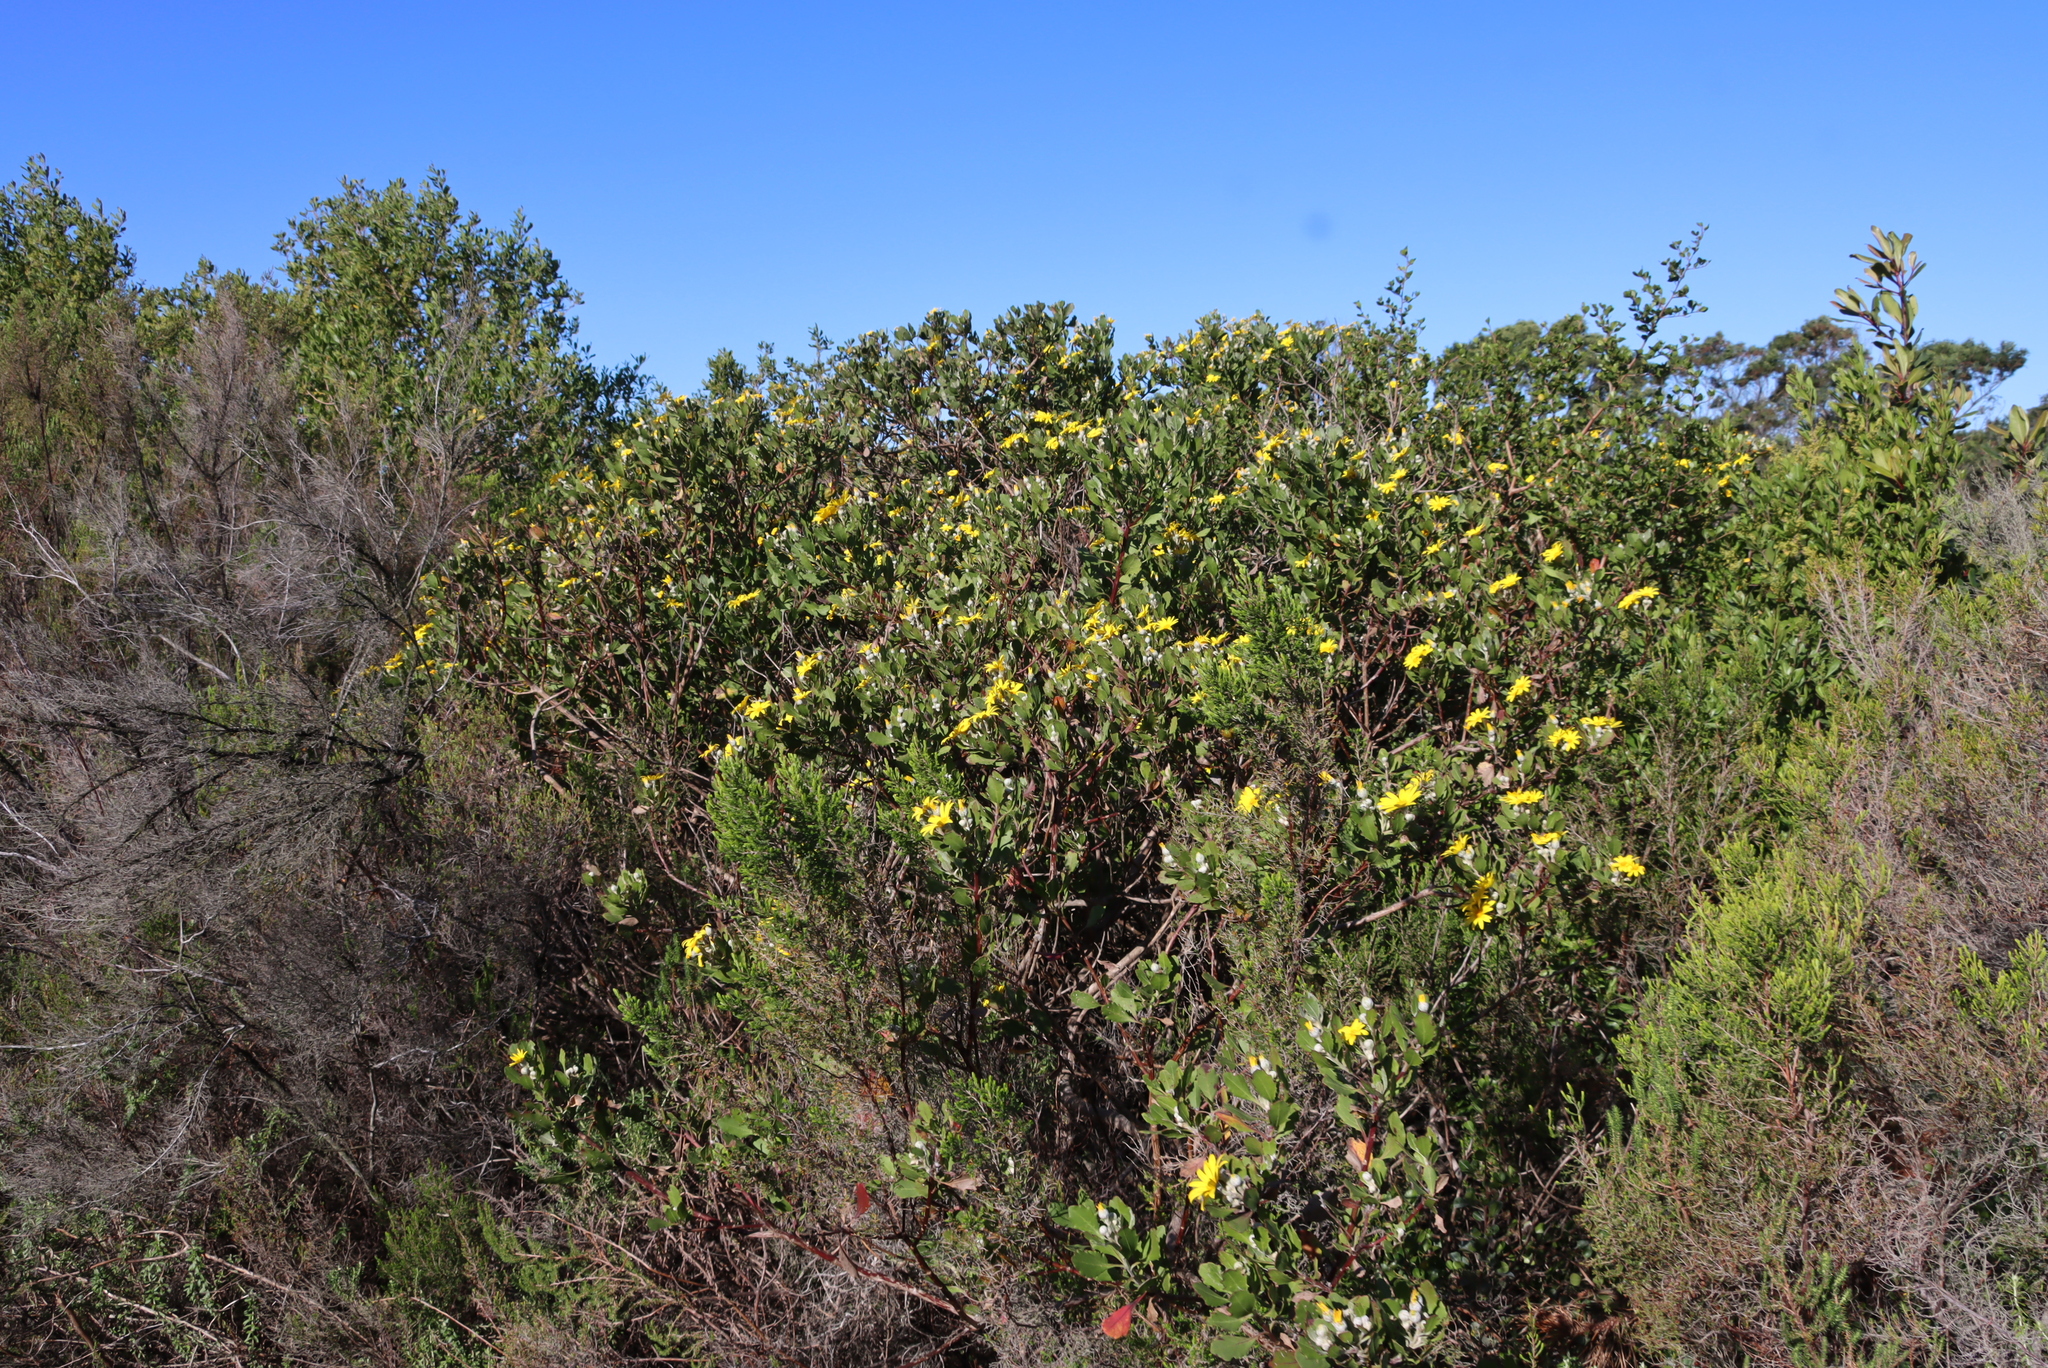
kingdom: Plantae
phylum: Tracheophyta
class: Magnoliopsida
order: Asterales
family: Asteraceae
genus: Osteospermum
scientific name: Osteospermum moniliferum
